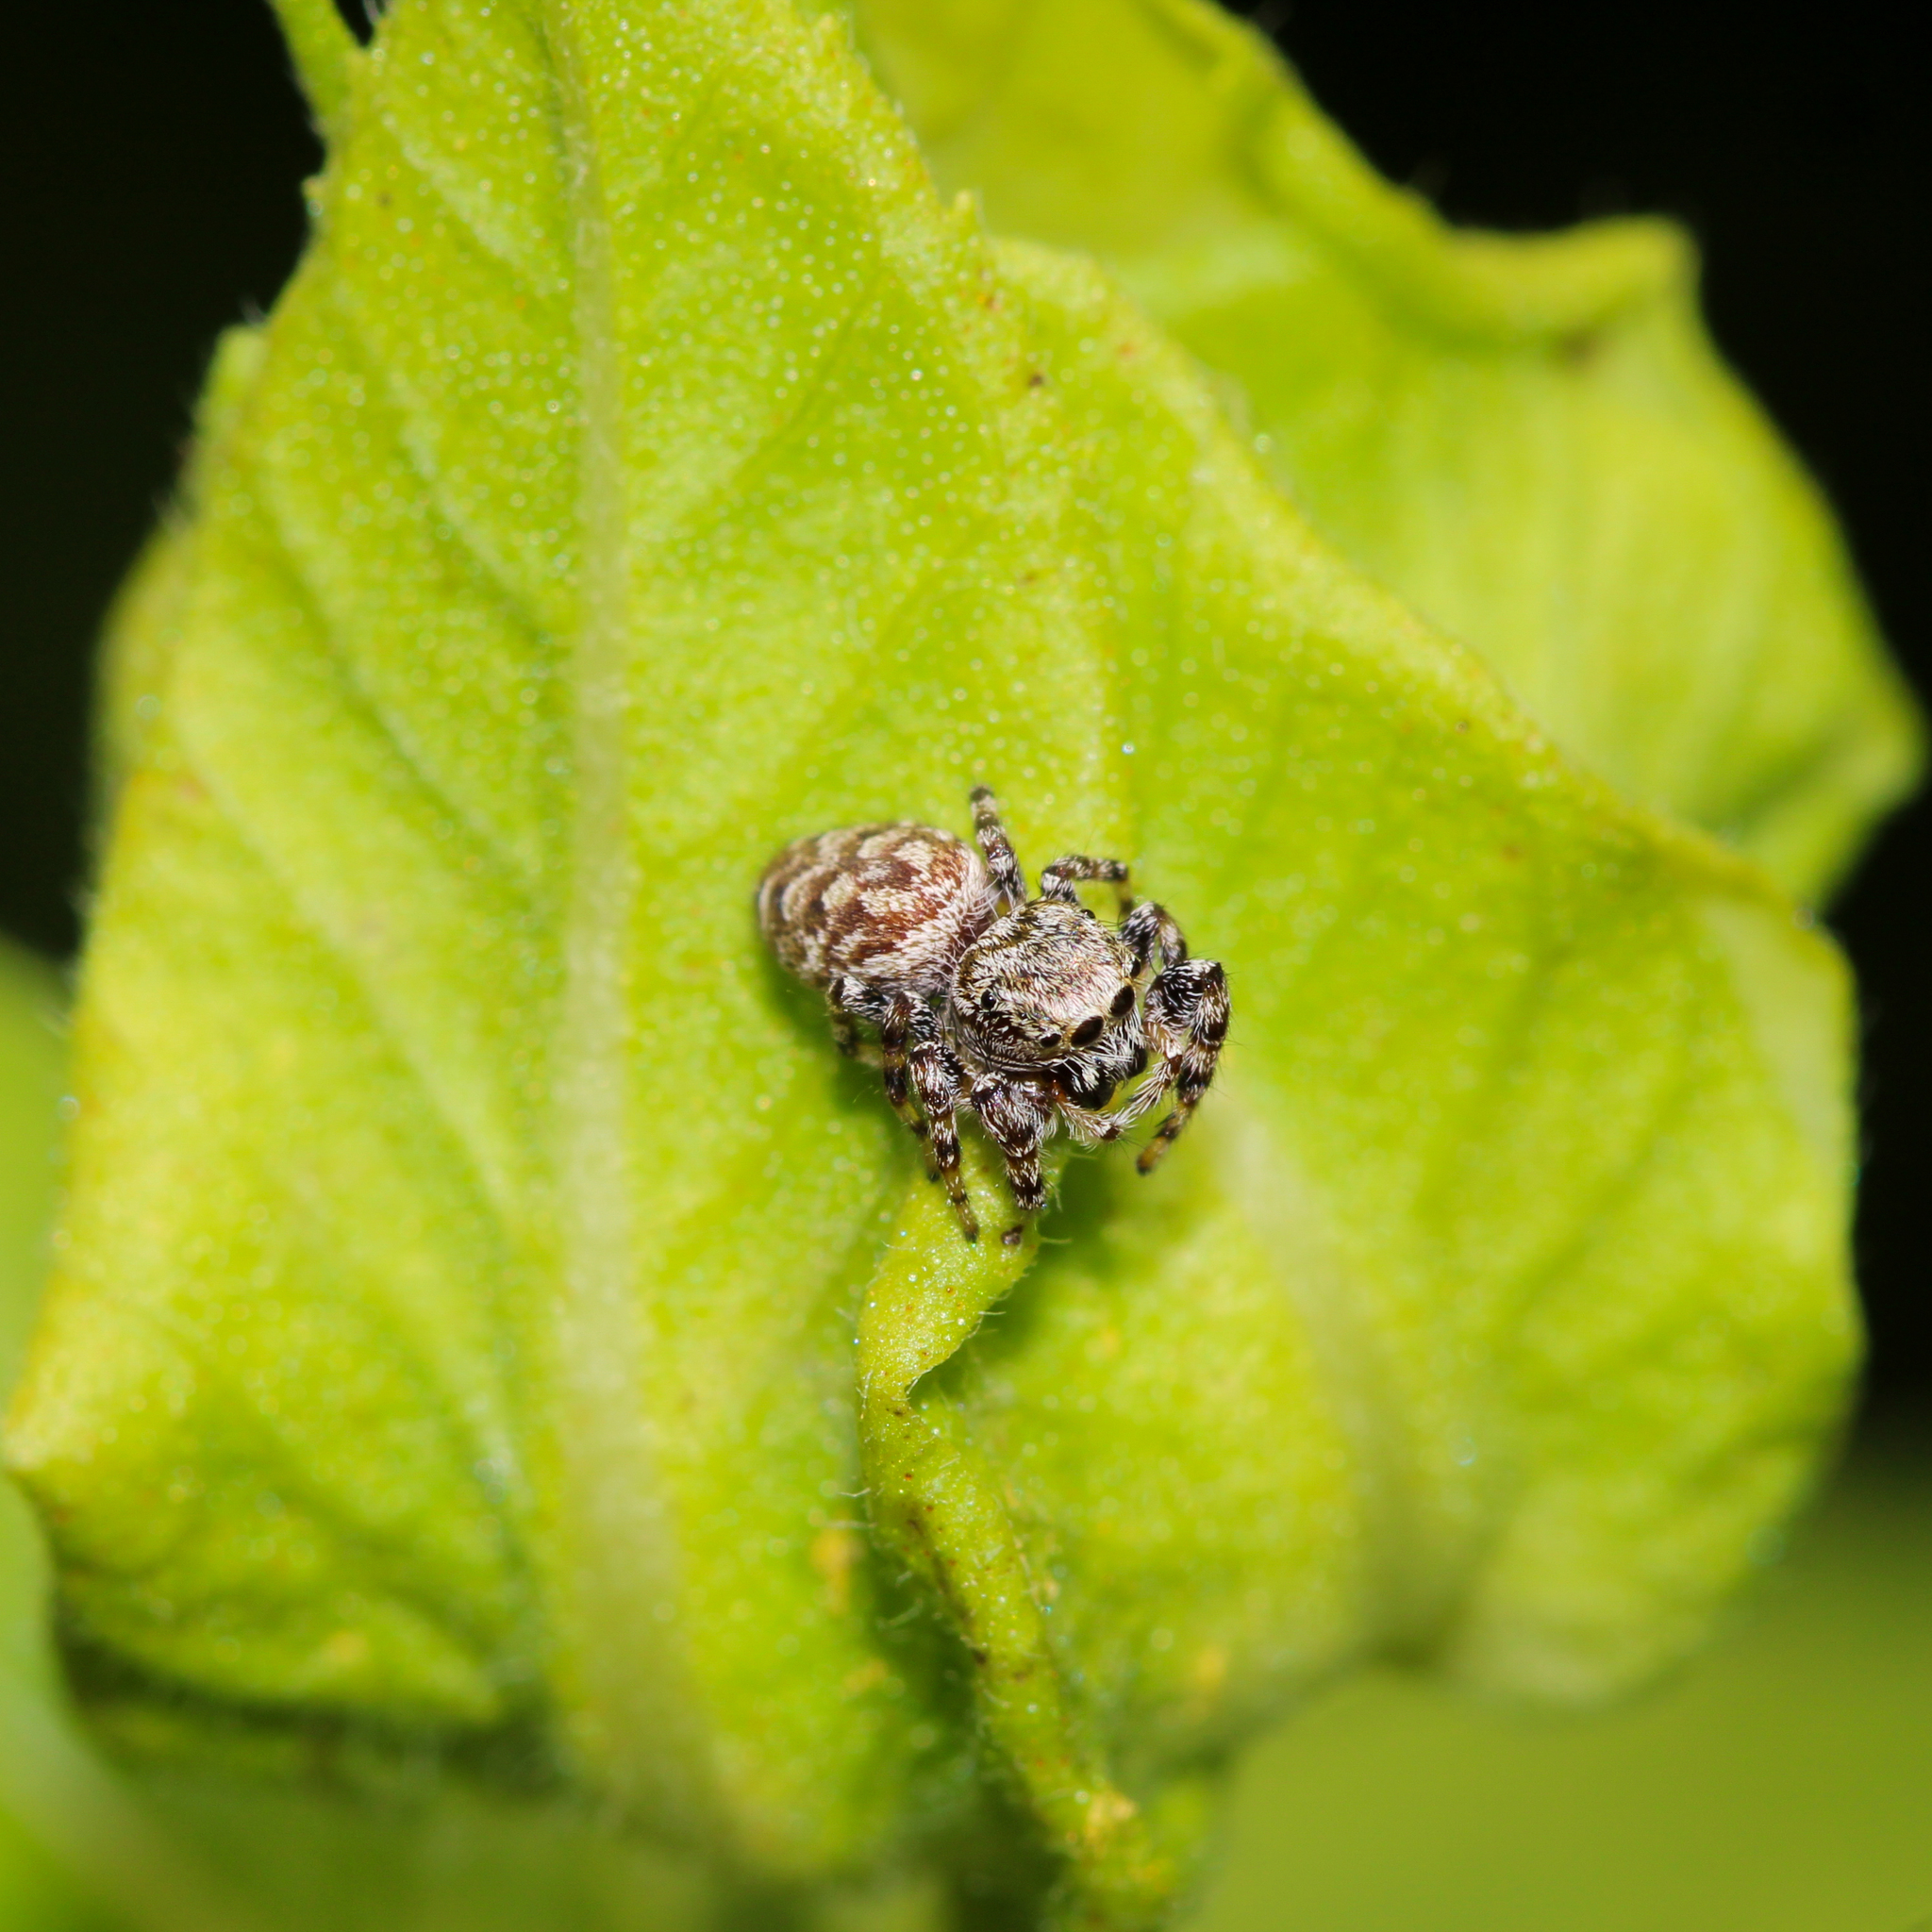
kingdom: Animalia
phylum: Arthropoda
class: Arachnida
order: Araneae
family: Salticidae
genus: Pelegrina
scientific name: Pelegrina galathea
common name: Jumping spiders
